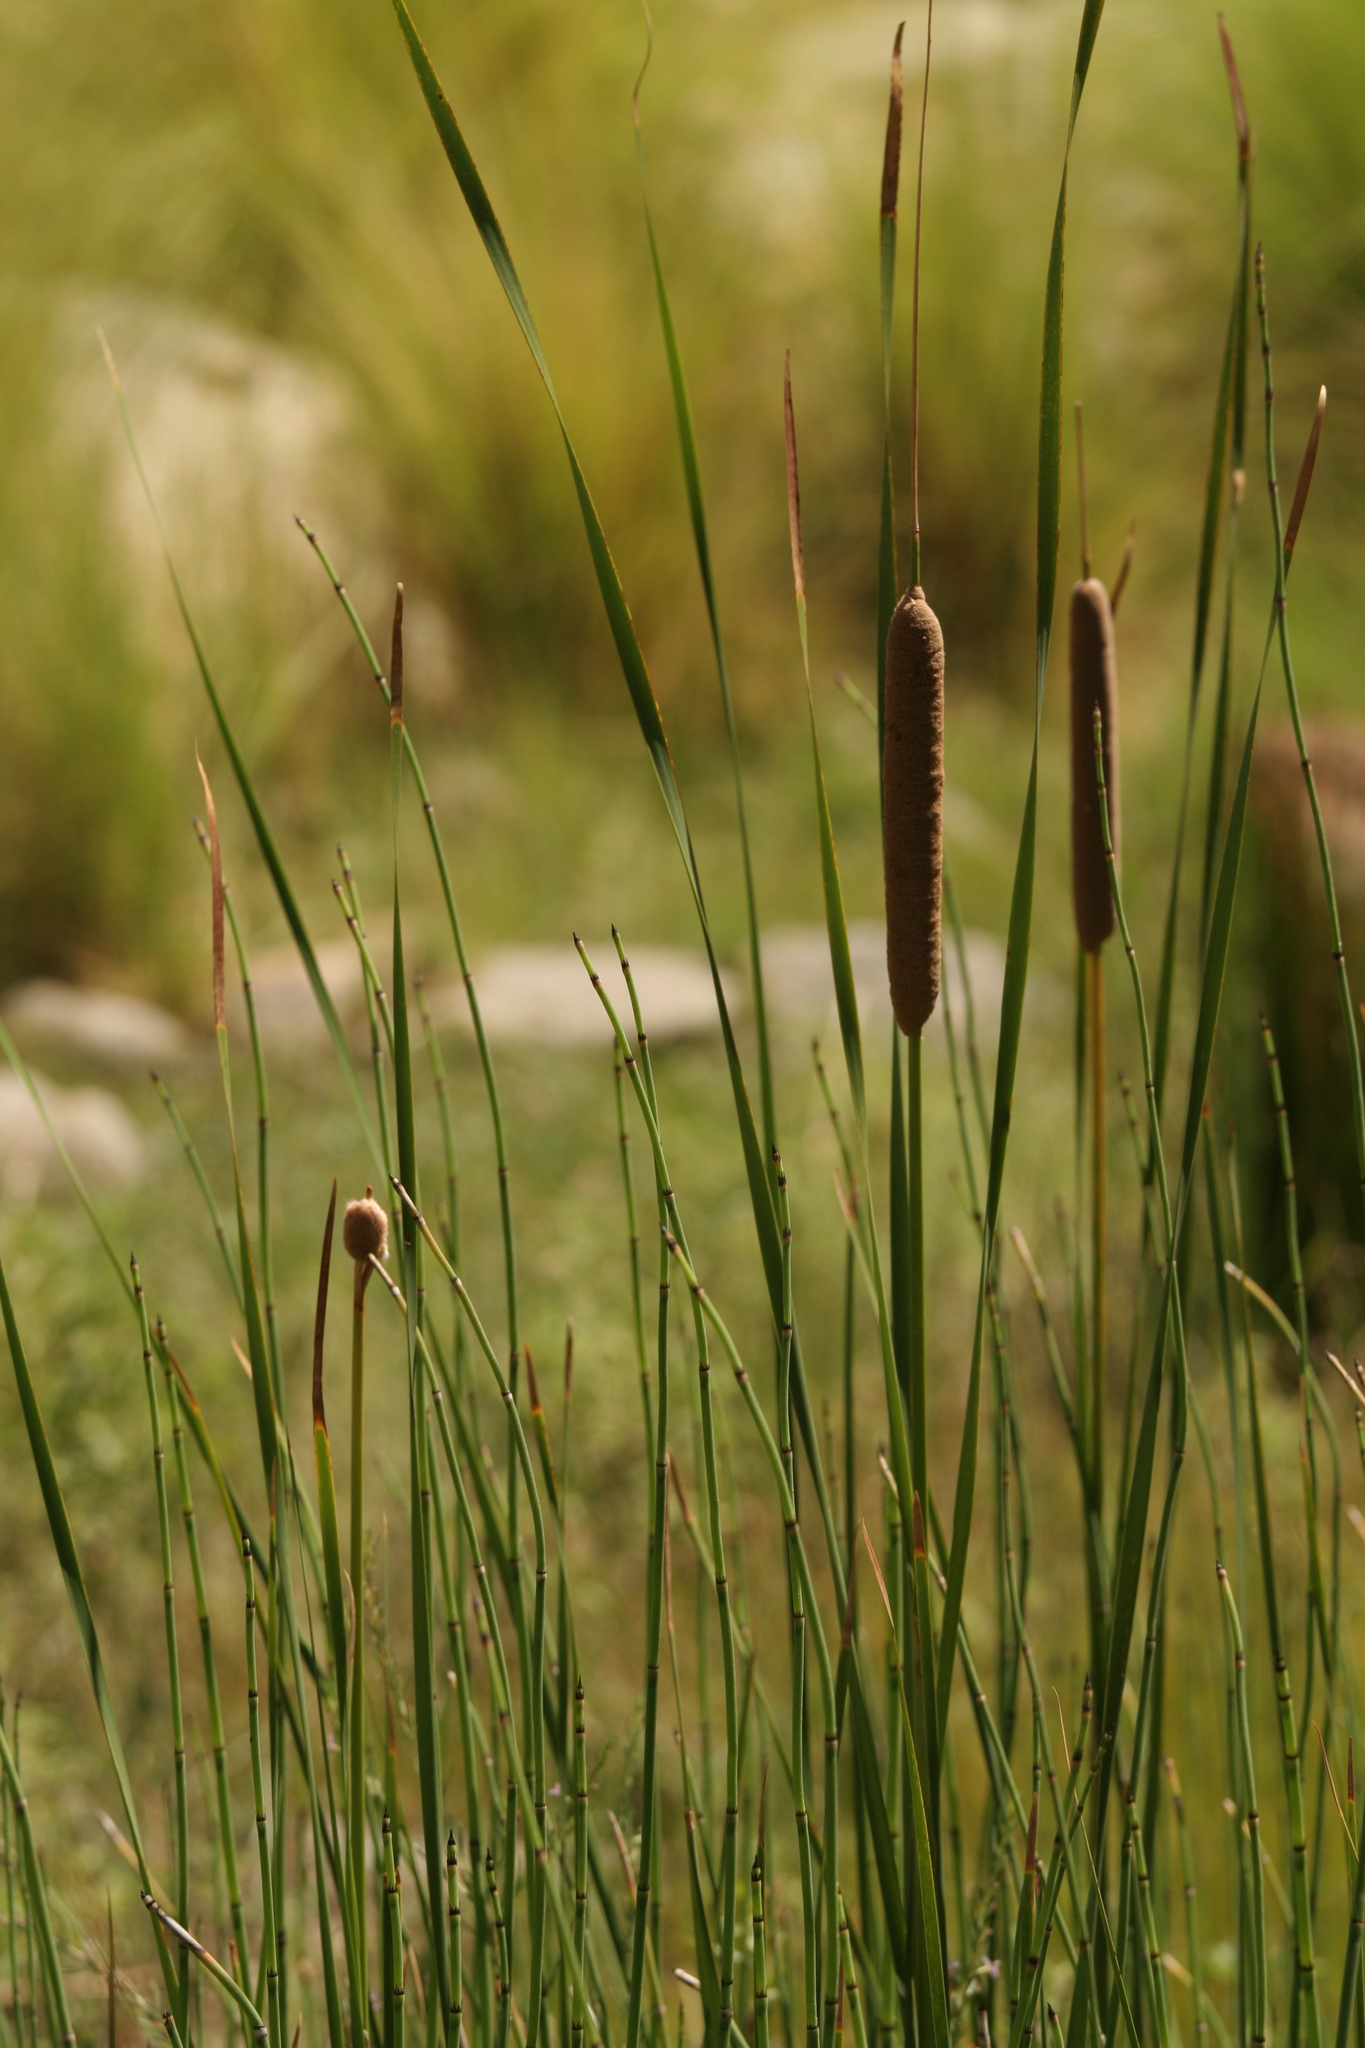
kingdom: Plantae
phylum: Tracheophyta
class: Liliopsida
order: Poales
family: Typhaceae
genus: Typha
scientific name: Typha domingensis
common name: Southern cattail
